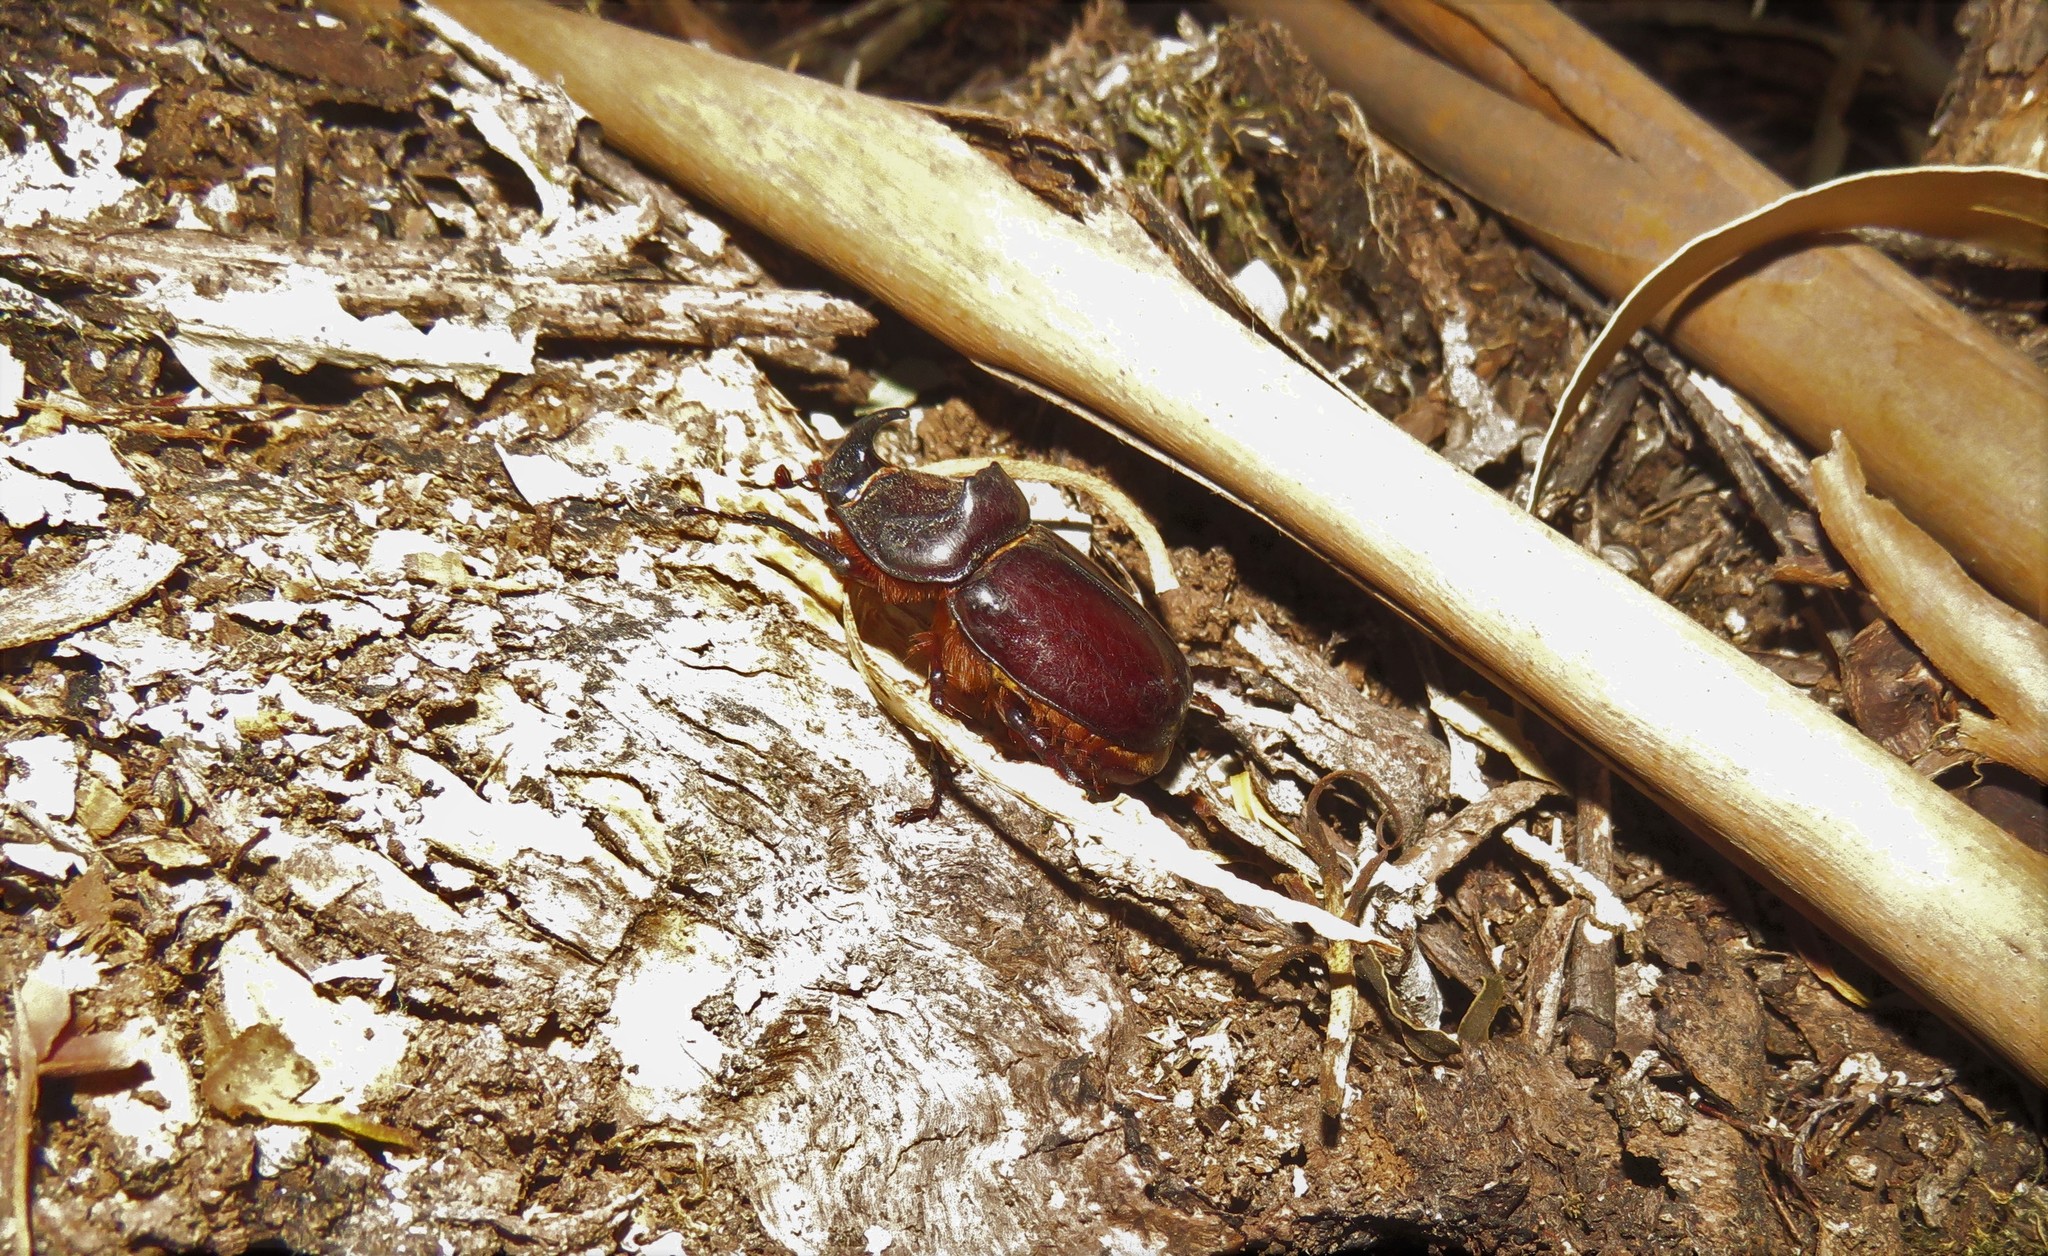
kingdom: Animalia
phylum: Arthropoda
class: Insecta
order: Coleoptera
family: Scarabaeidae
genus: Oryctes
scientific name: Oryctes nasicornis
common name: European rhinoceros beetle
